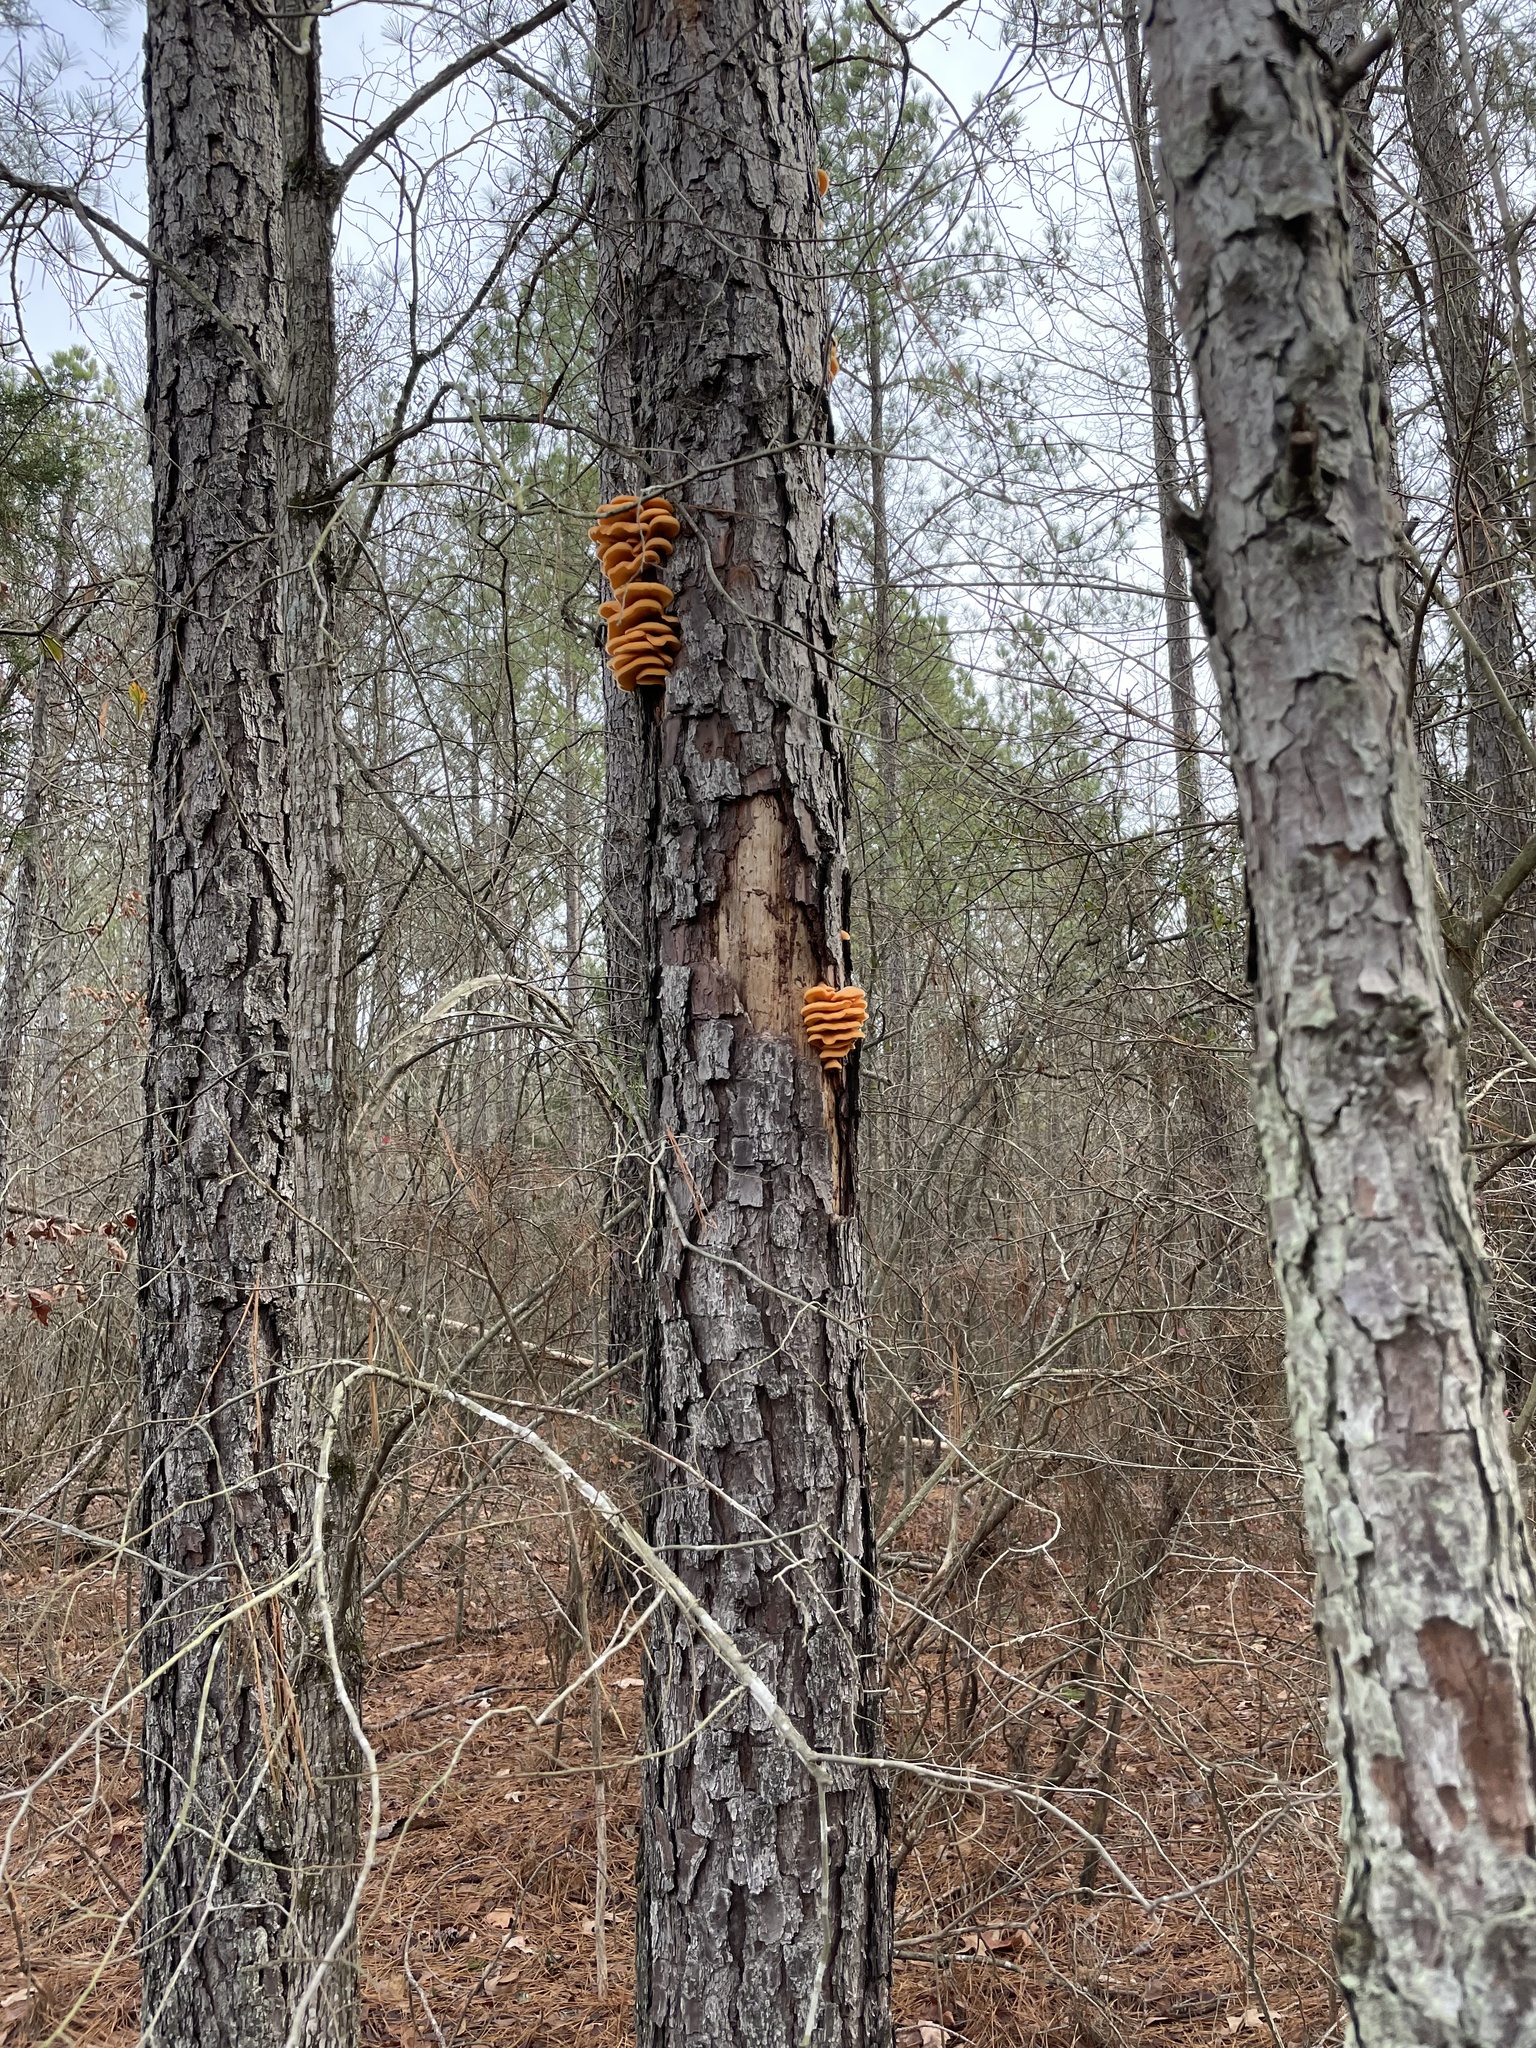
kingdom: Fungi
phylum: Basidiomycota
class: Agaricomycetes
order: Agaricales
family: Phyllotopsidaceae
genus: Phyllotopsis
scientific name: Phyllotopsis nidulans
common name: Orange mock oyster
